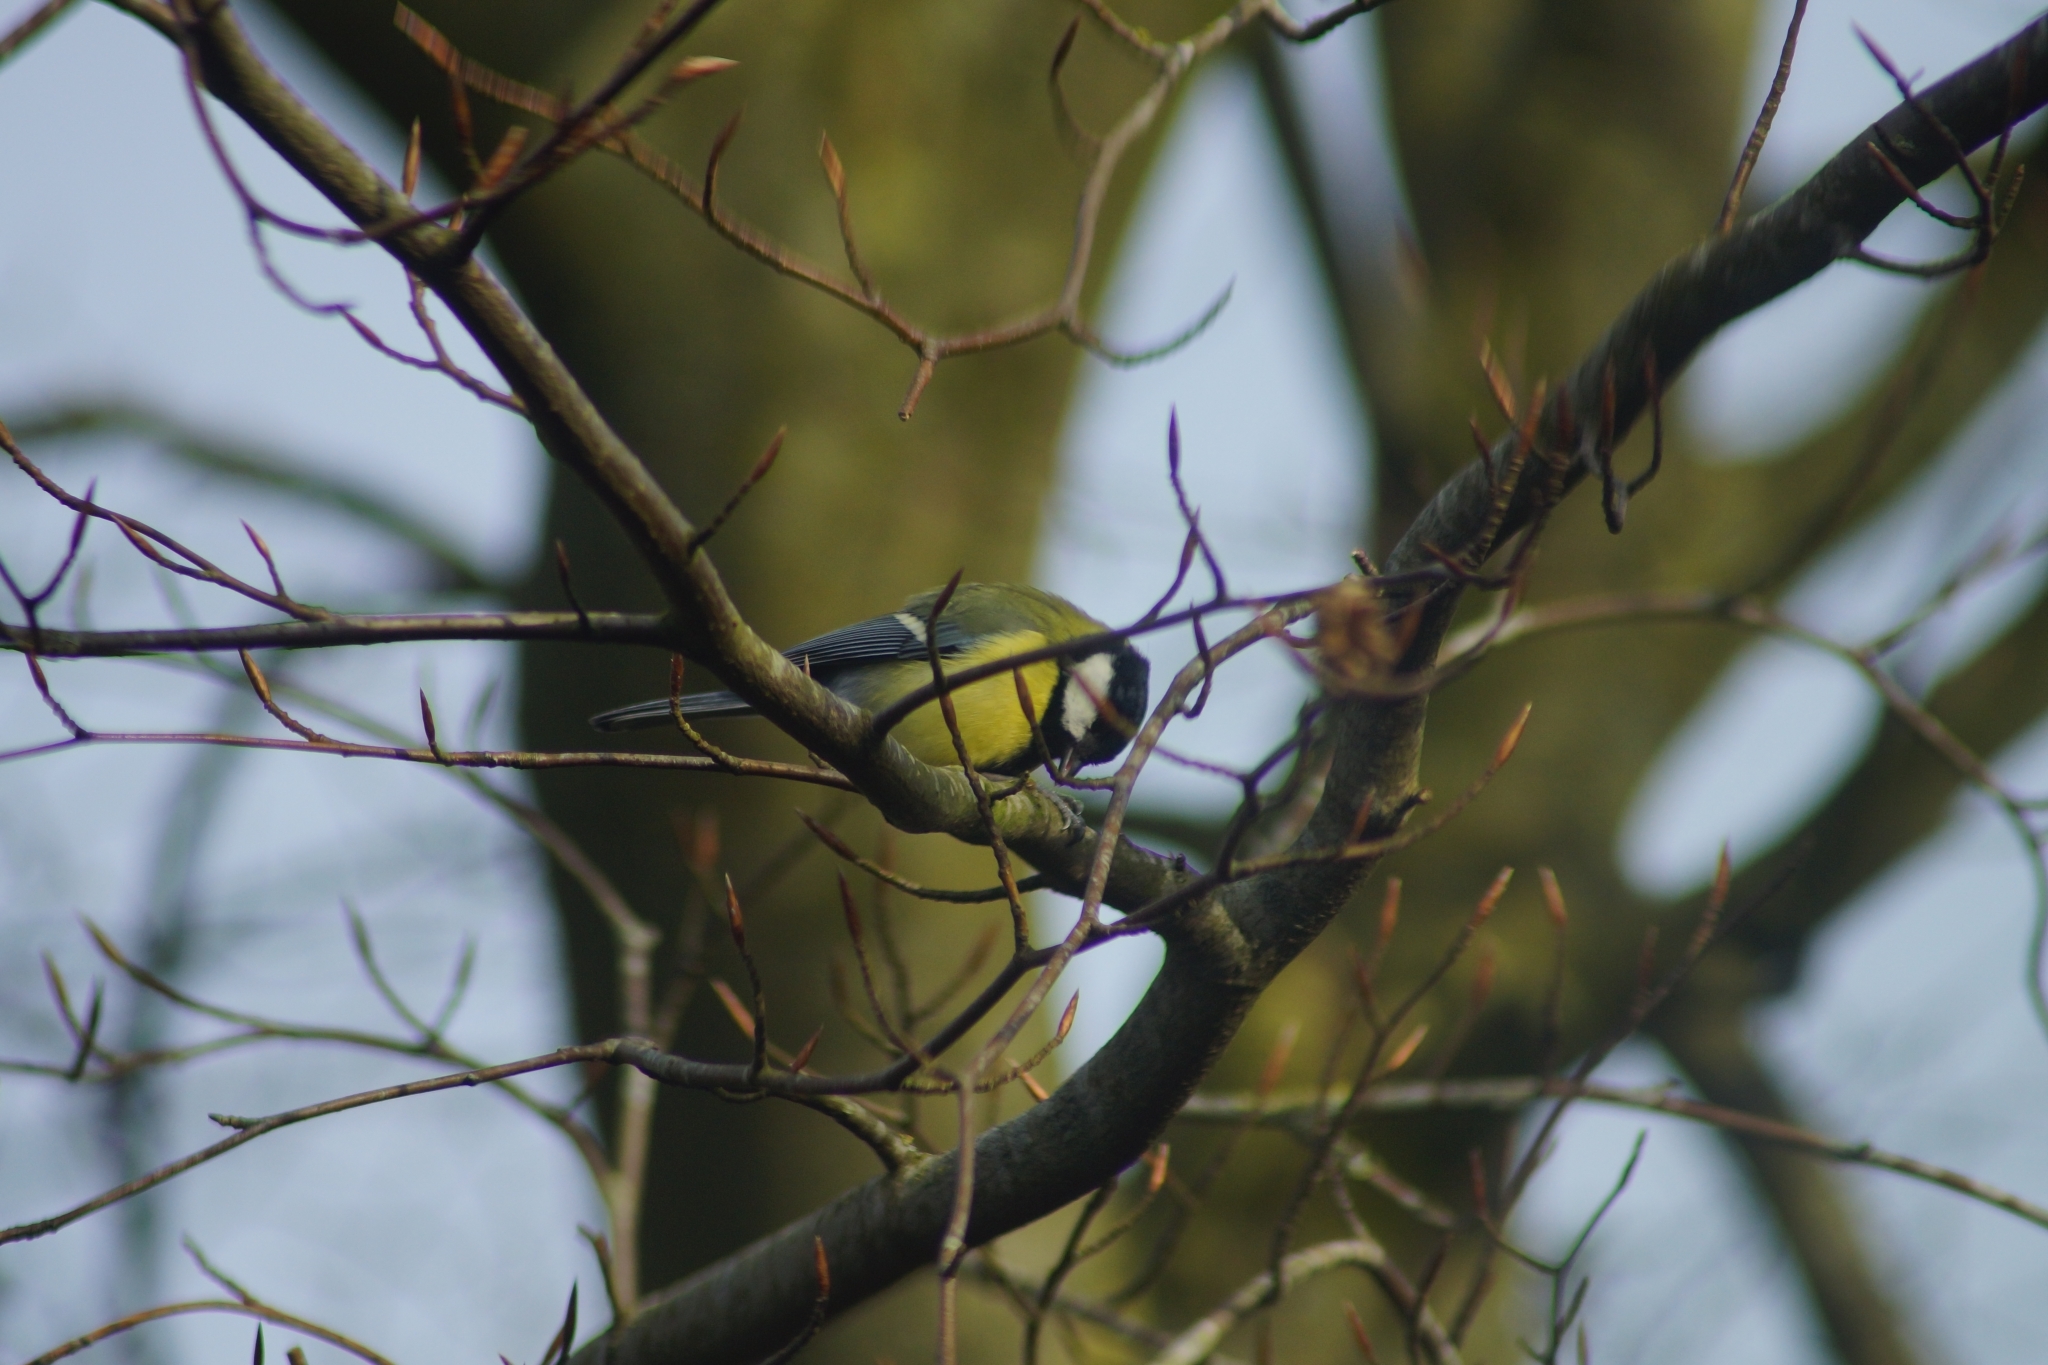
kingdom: Animalia
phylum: Chordata
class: Aves
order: Passeriformes
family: Paridae
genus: Parus
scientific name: Parus major
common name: Great tit
